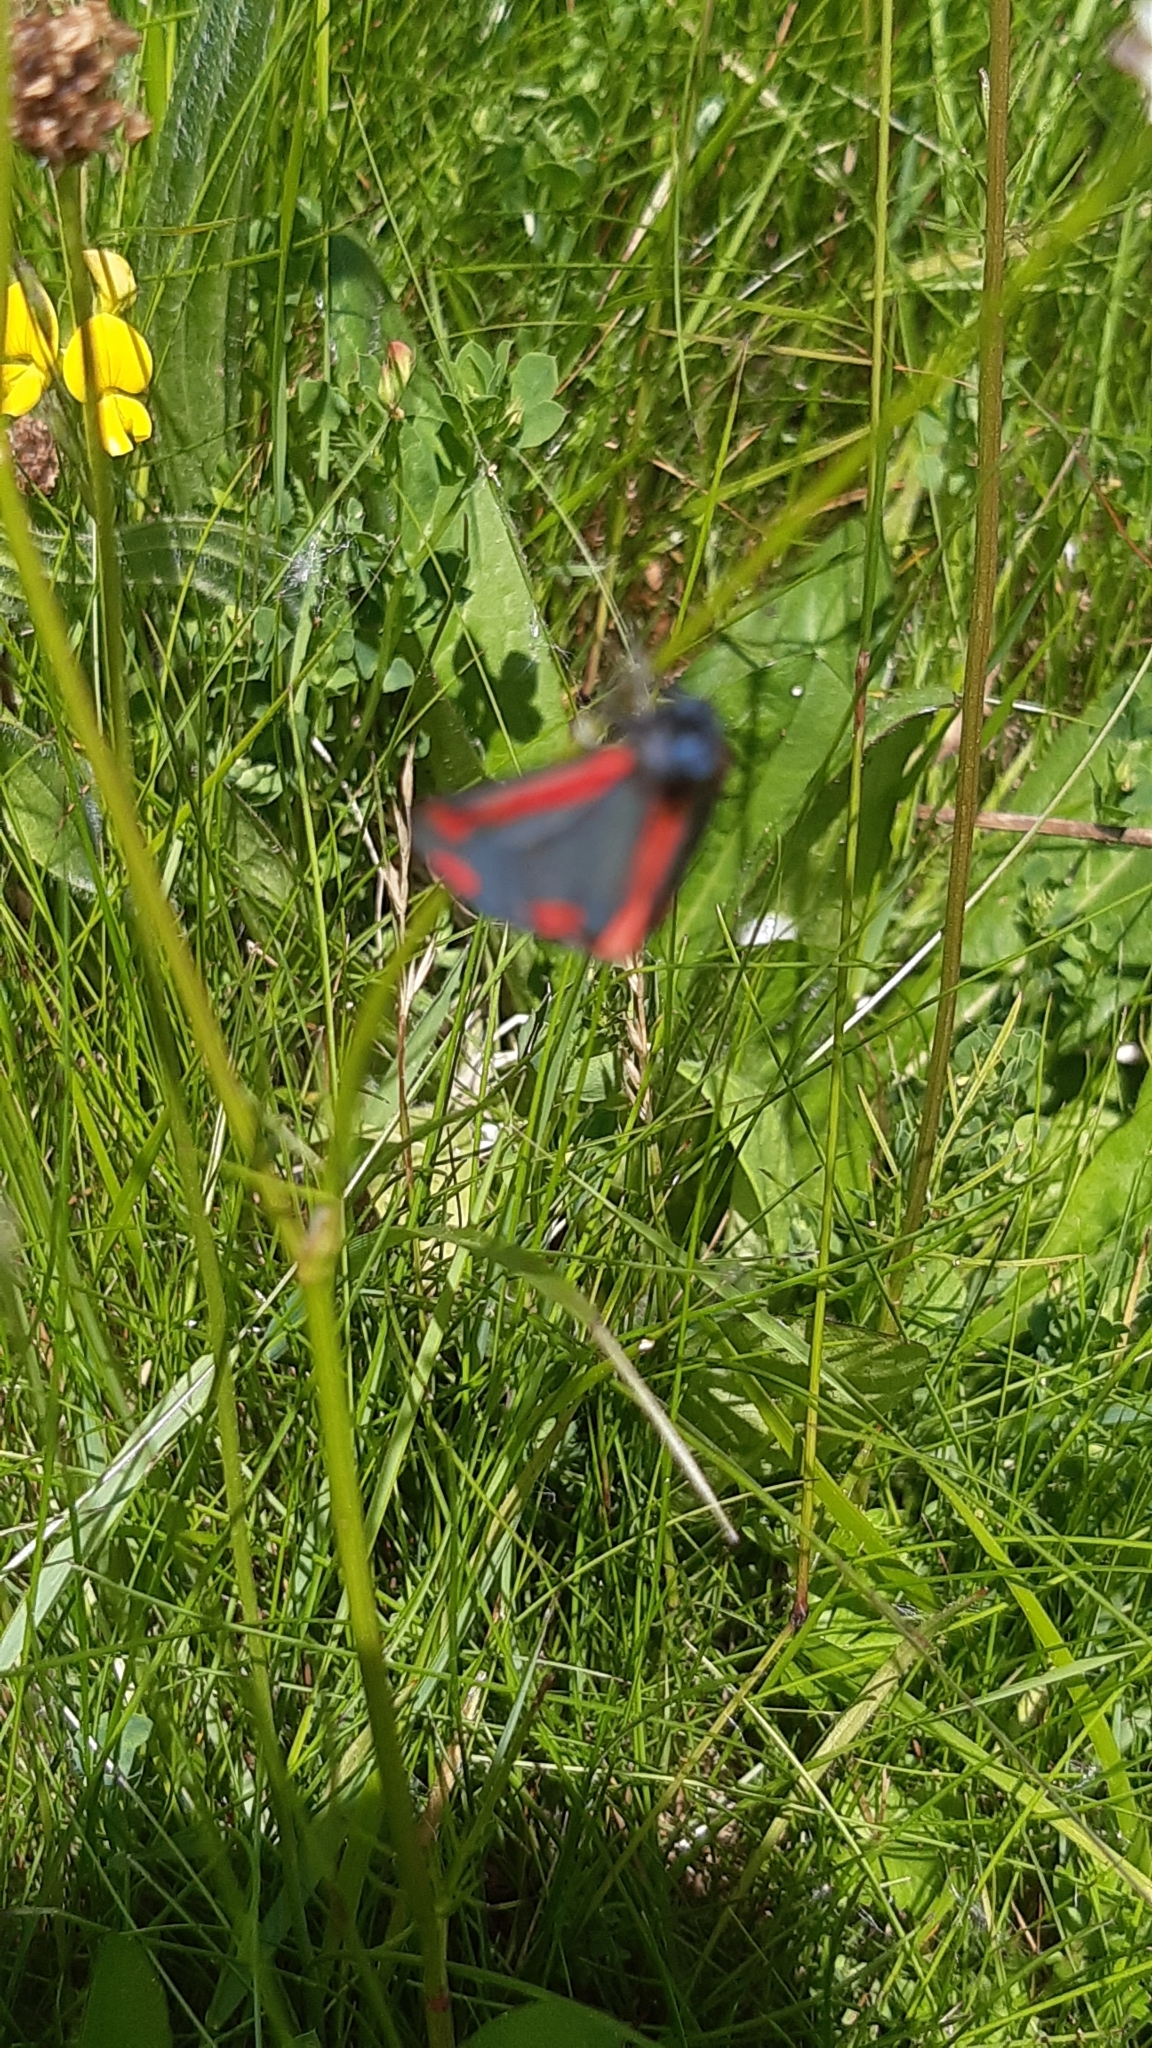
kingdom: Animalia
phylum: Arthropoda
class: Insecta
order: Lepidoptera
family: Erebidae
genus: Tyria
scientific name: Tyria jacobaeae
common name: Cinnabar
